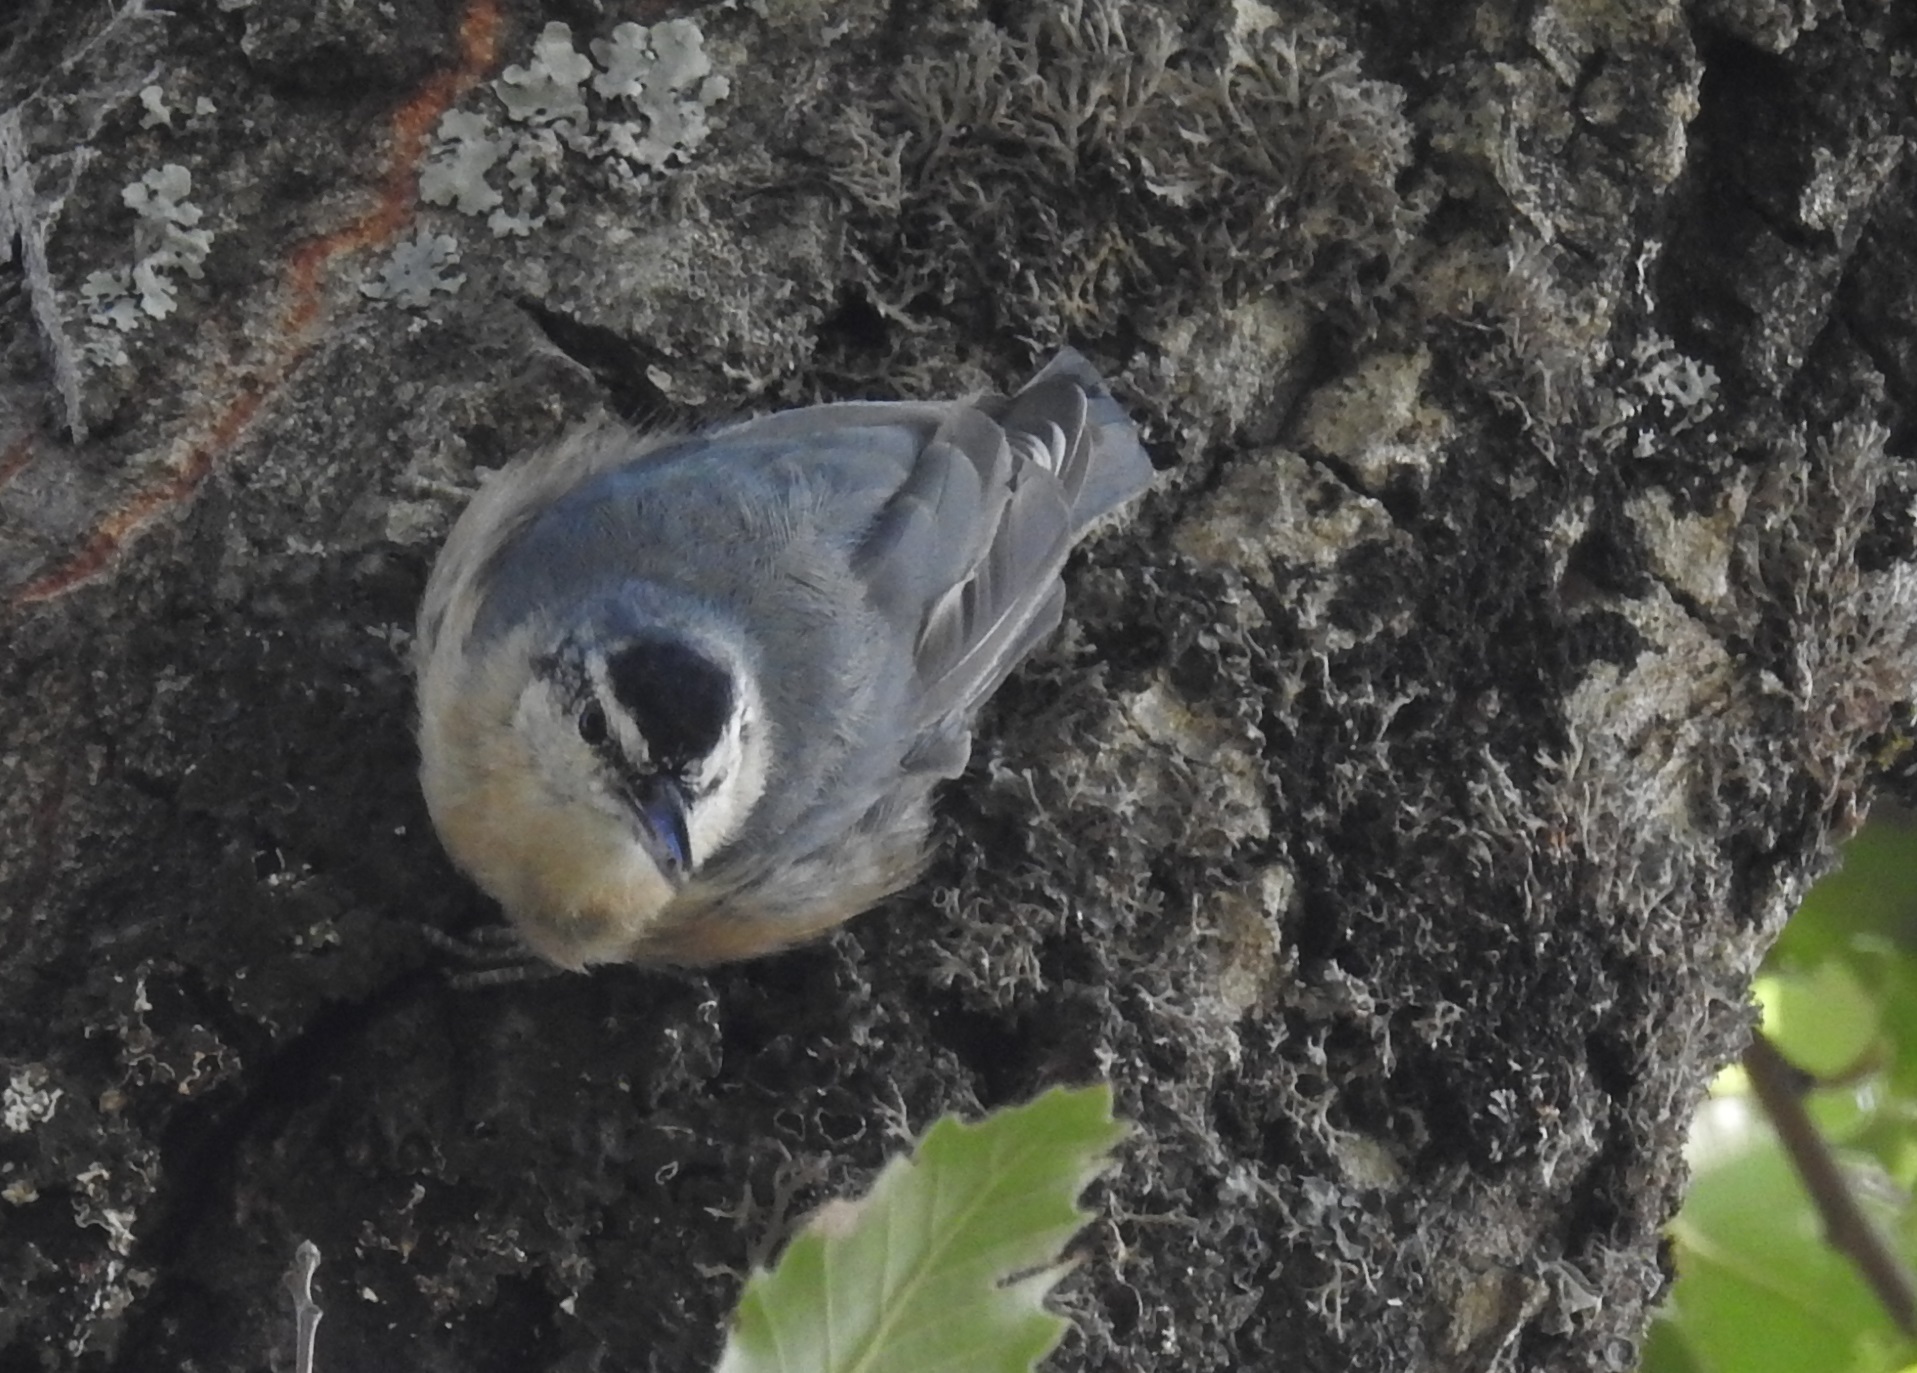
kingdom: Animalia
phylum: Chordata
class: Aves
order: Passeriformes
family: Sittidae
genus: Sitta
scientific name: Sitta ledanti
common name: Algerian nuthatch
